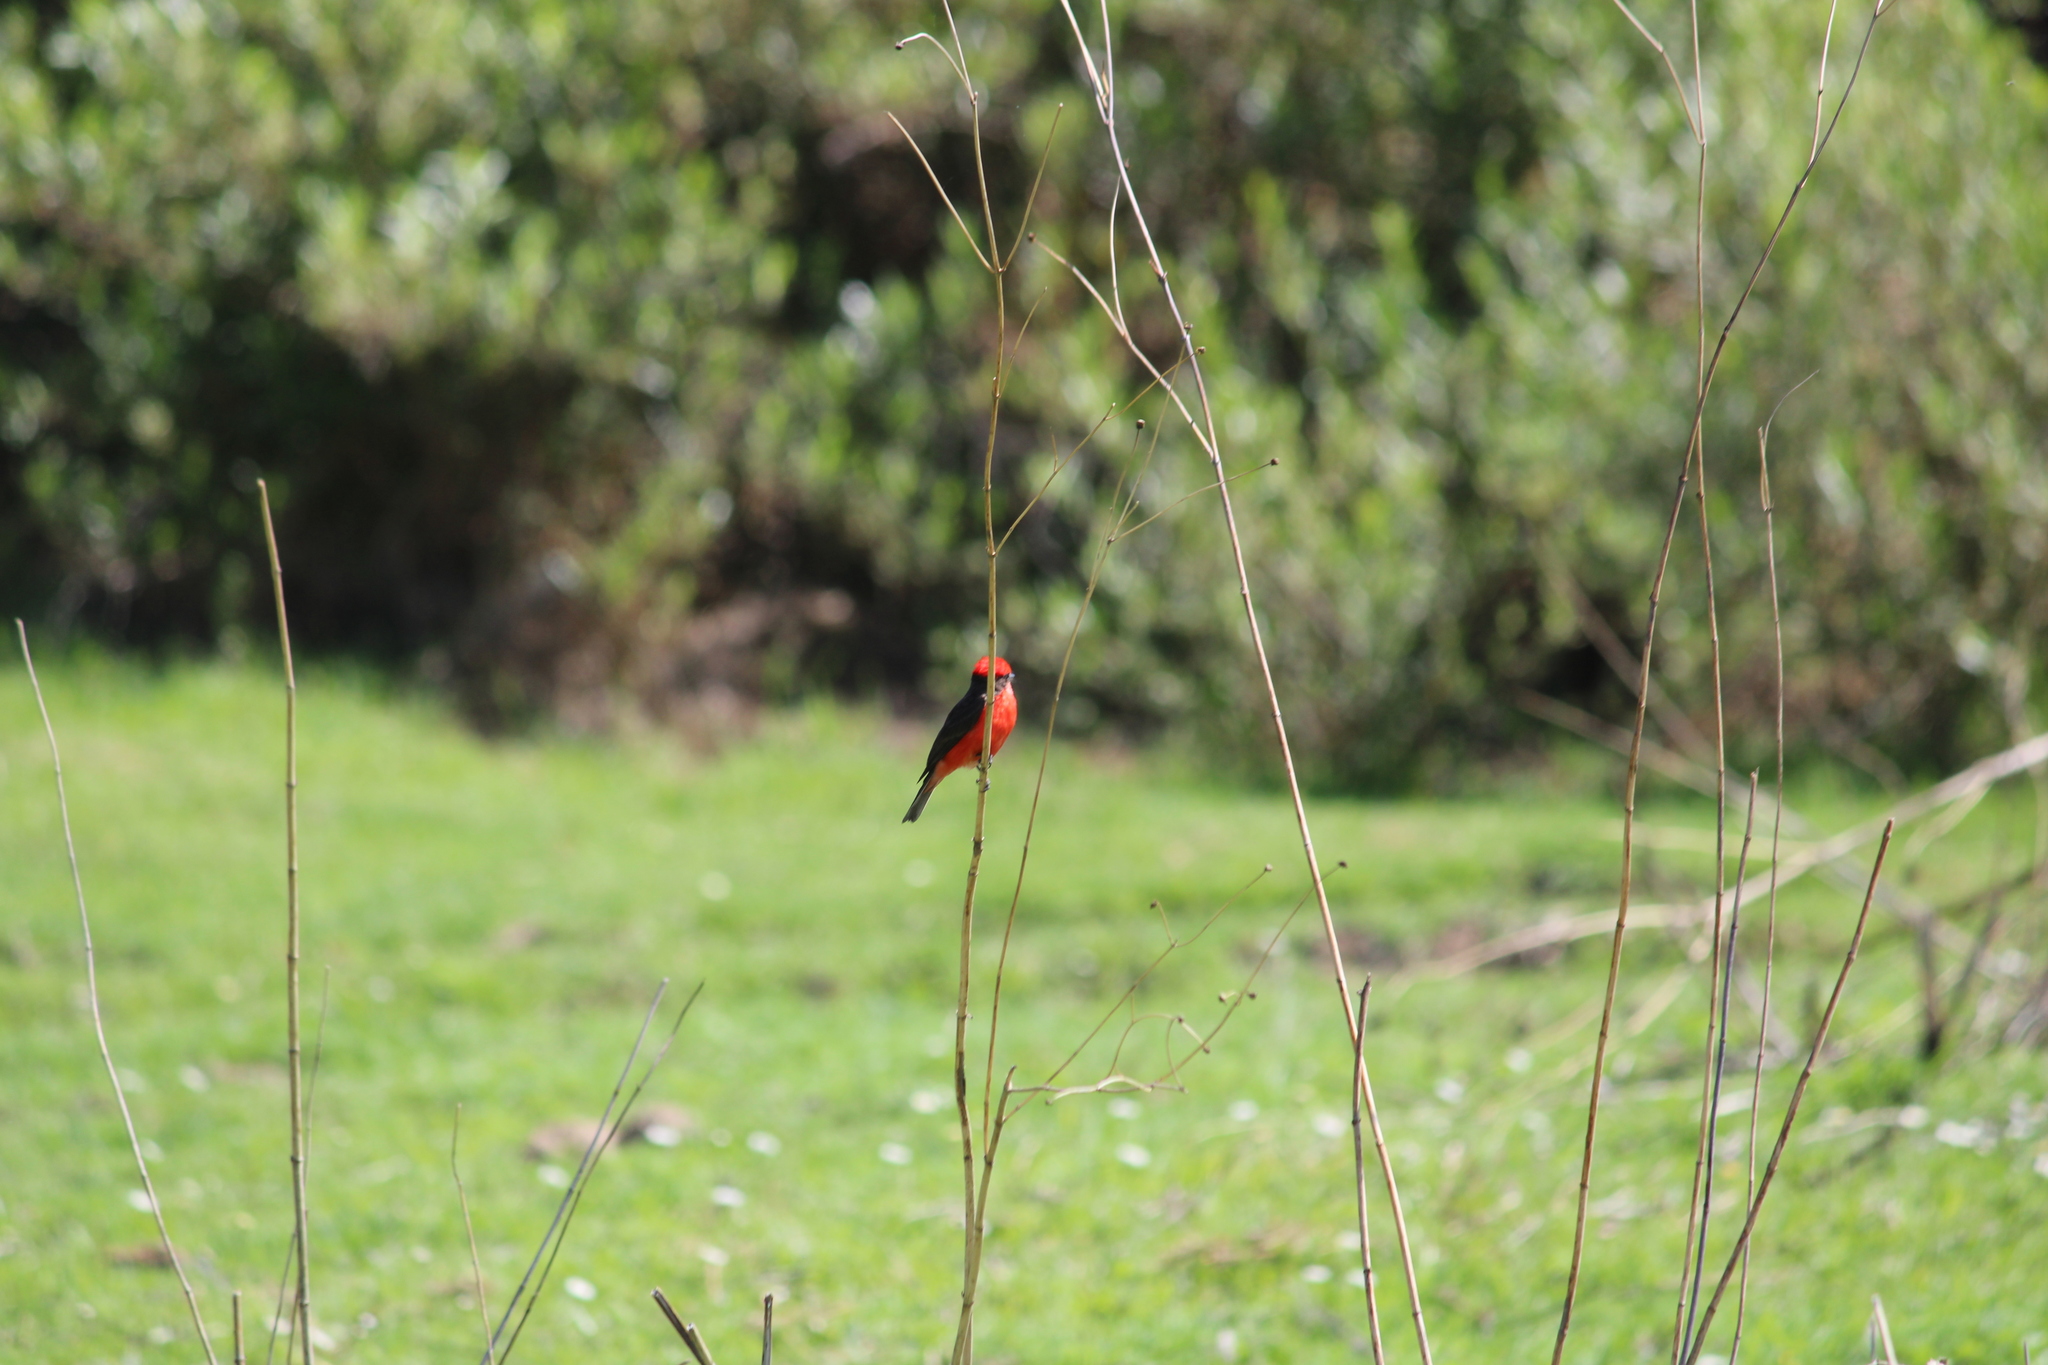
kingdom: Animalia
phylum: Chordata
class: Aves
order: Passeriformes
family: Tyrannidae
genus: Pyrocephalus
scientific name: Pyrocephalus rubinus
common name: Vermilion flycatcher
